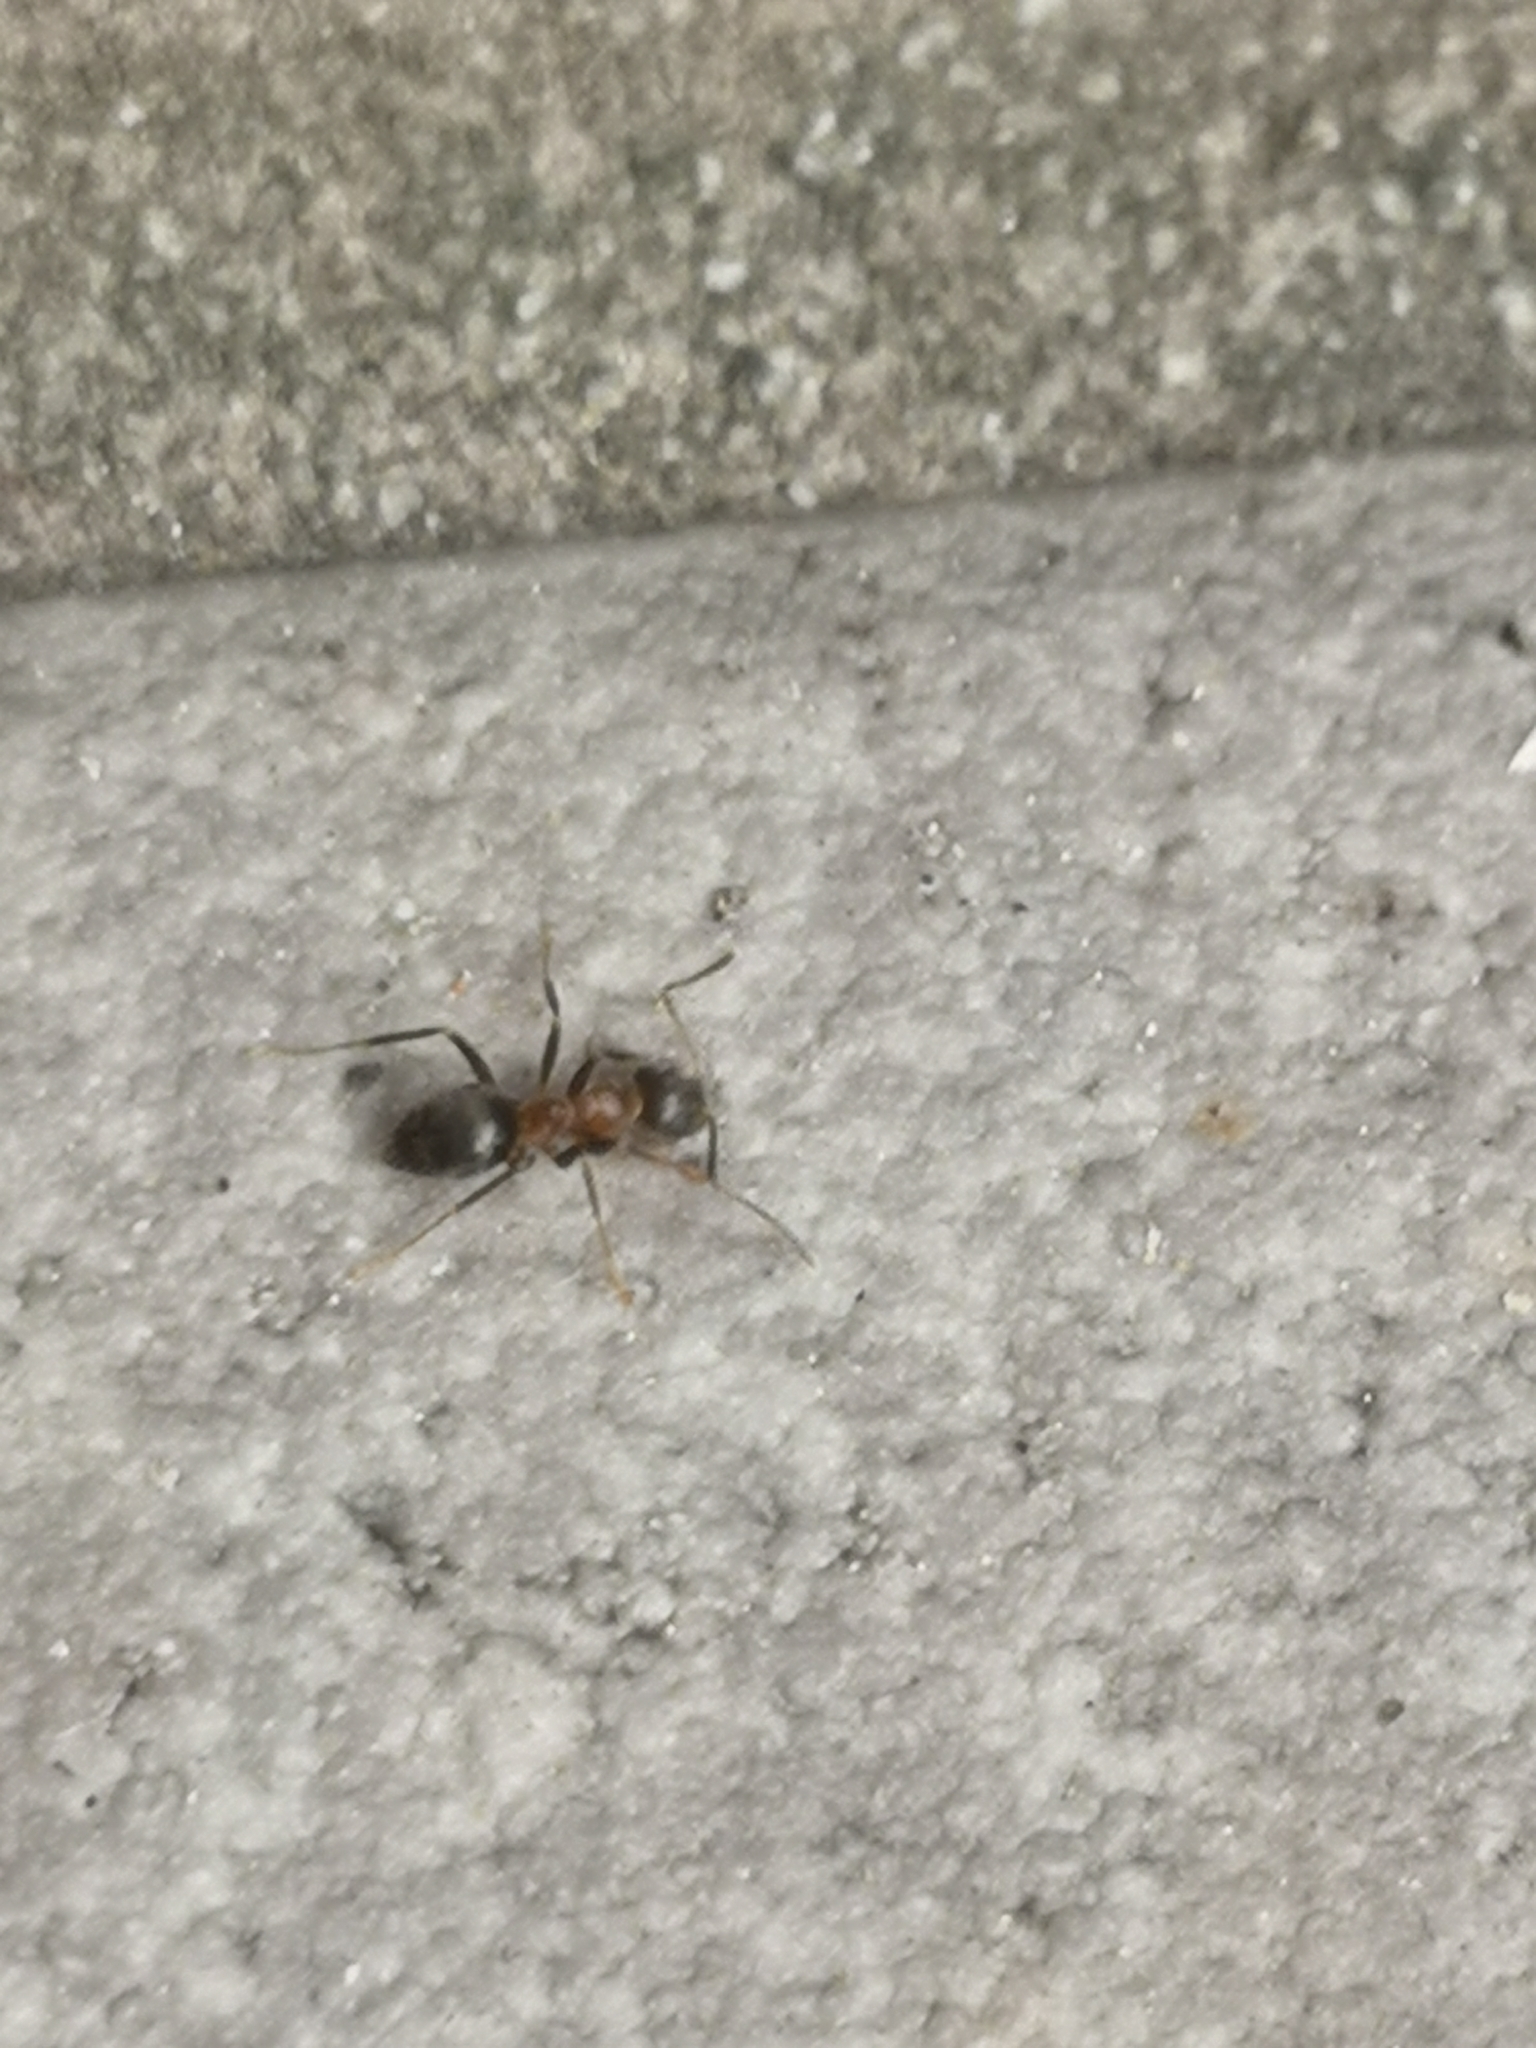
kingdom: Animalia
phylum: Arthropoda
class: Insecta
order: Hymenoptera
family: Formicidae
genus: Lasius
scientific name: Lasius emarginatus
